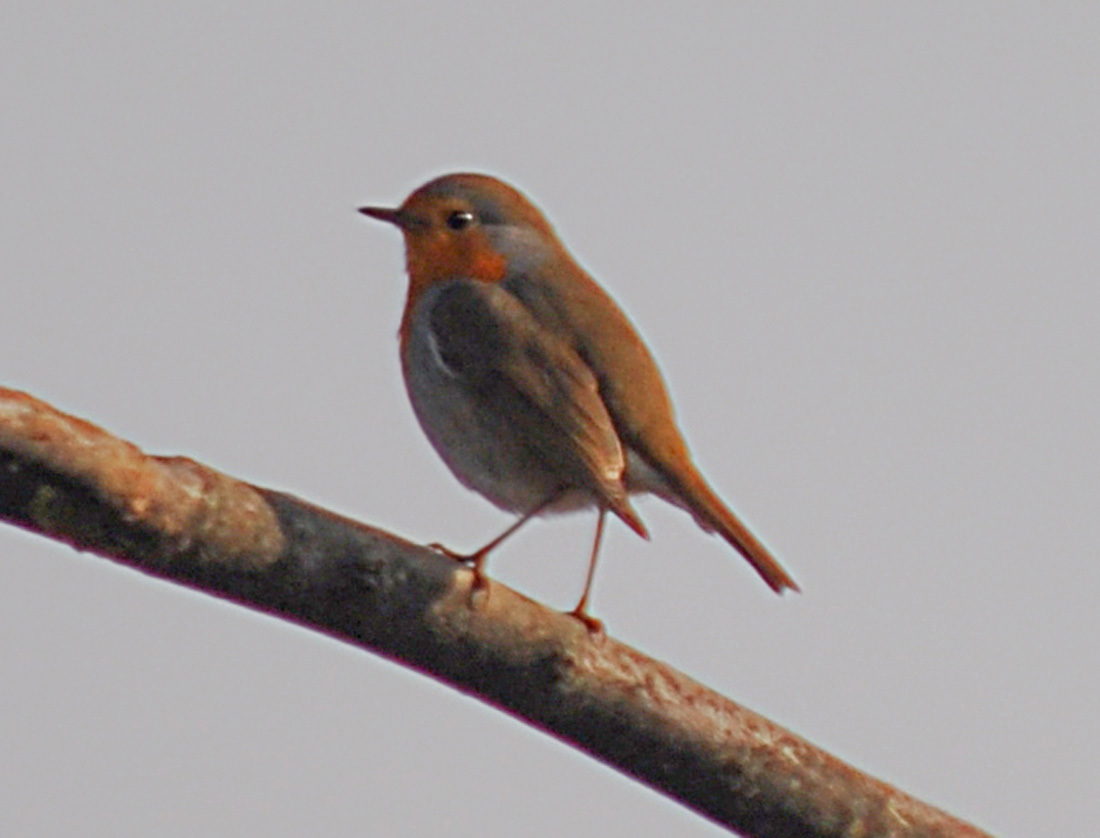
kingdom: Animalia
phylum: Chordata
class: Aves
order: Passeriformes
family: Muscicapidae
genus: Erithacus
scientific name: Erithacus rubecula
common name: European robin
